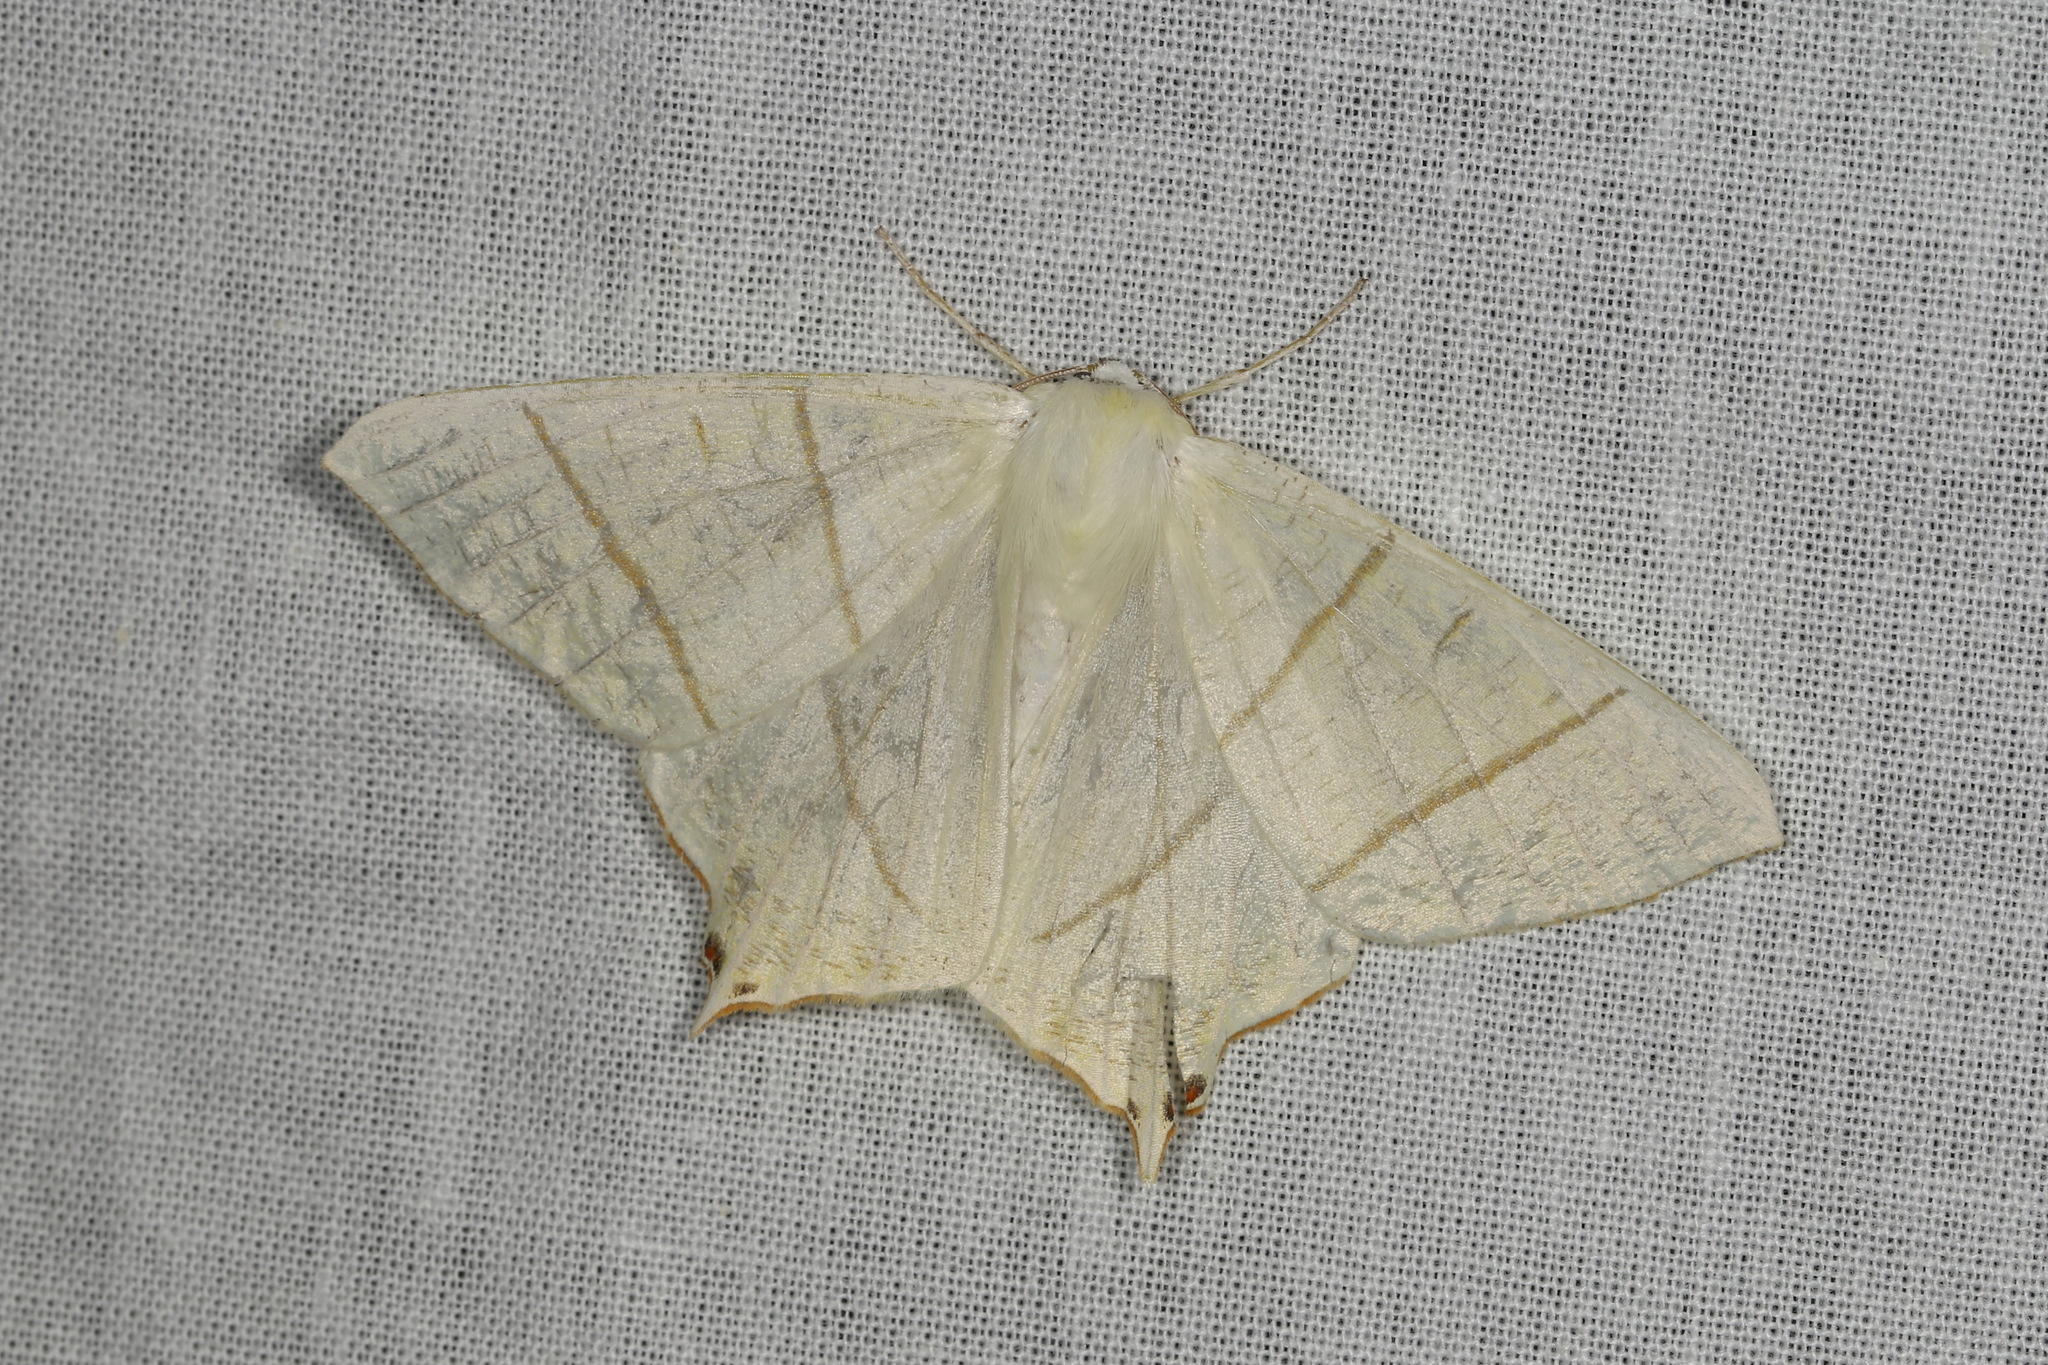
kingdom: Animalia
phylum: Arthropoda
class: Insecta
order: Lepidoptera
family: Geometridae
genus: Ourapteryx
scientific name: Ourapteryx sambucaria
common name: Swallow-tailed moth
